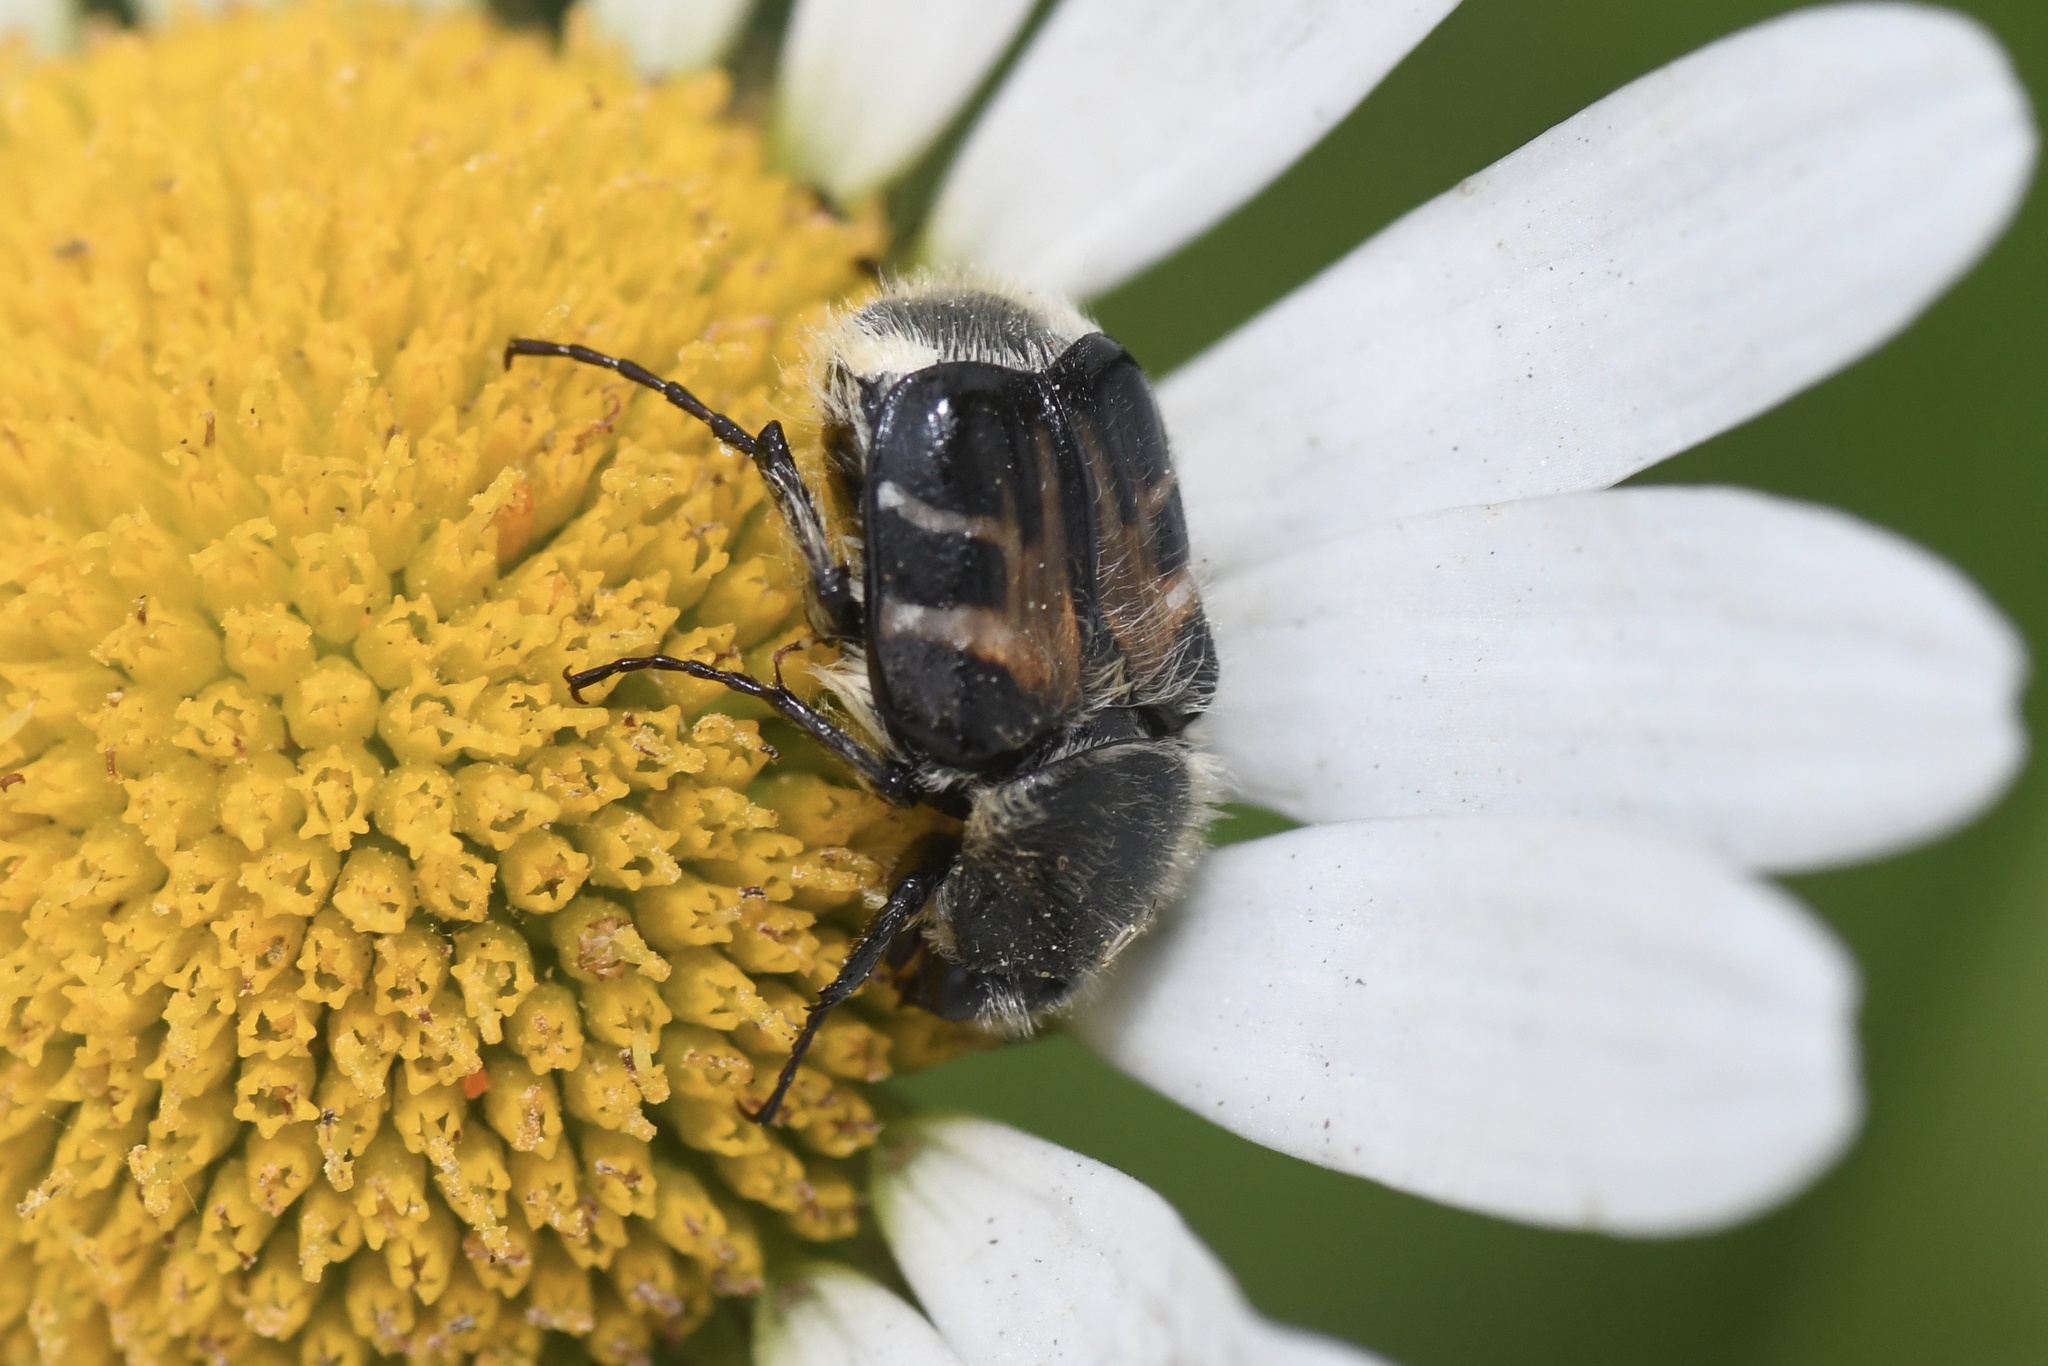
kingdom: Animalia
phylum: Arthropoda
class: Insecta
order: Coleoptera
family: Scarabaeidae
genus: Trichiotinus
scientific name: Trichiotinus assimilis
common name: Bee-mimic beetle
